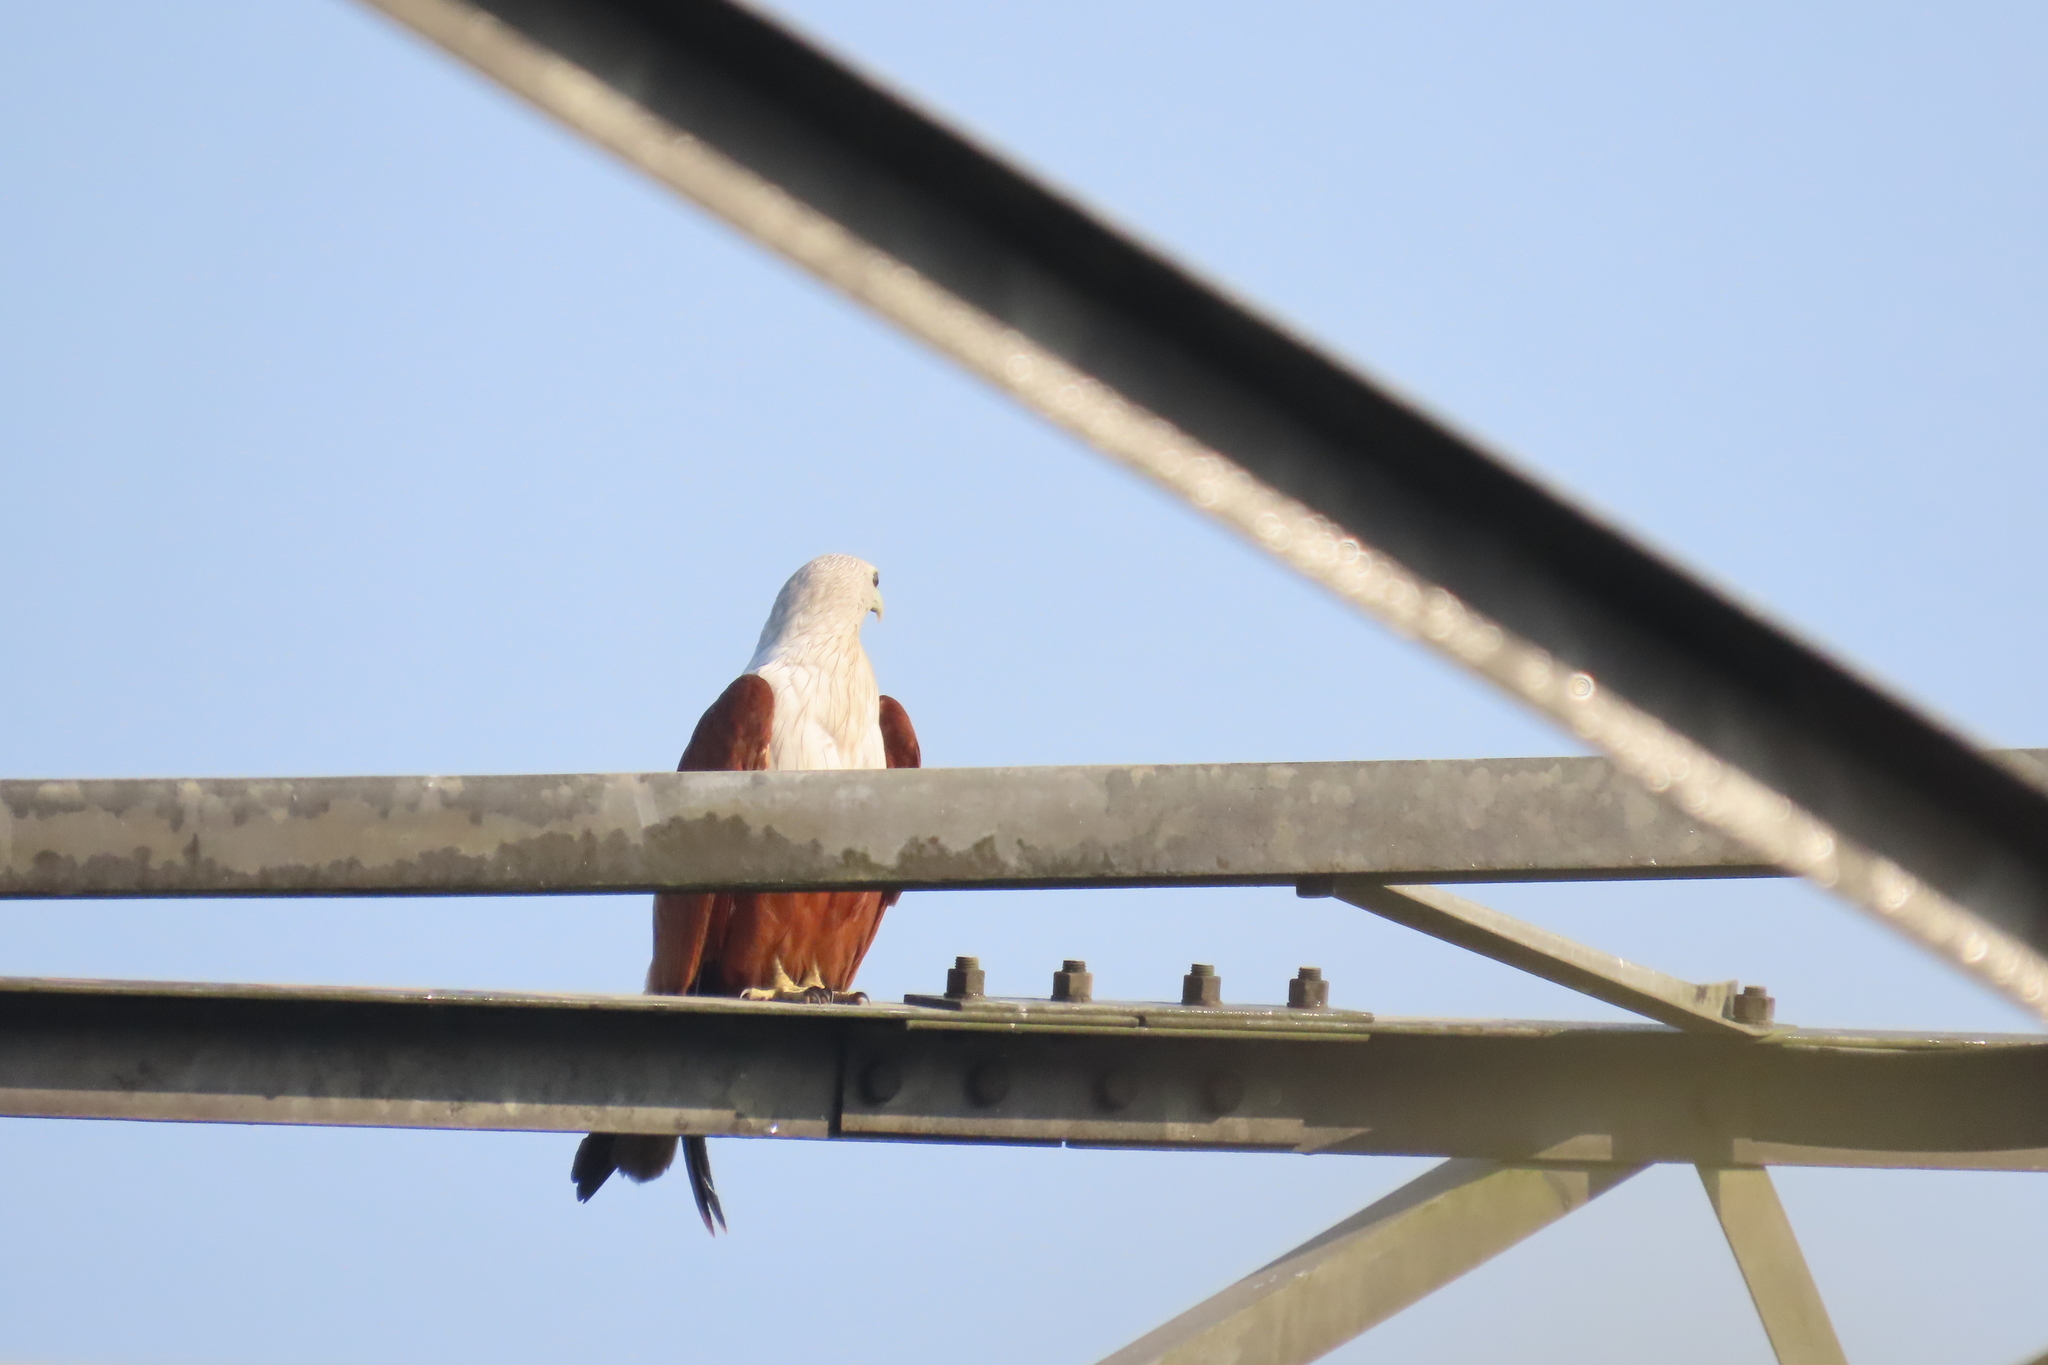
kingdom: Animalia
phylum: Chordata
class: Aves
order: Accipitriformes
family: Accipitridae
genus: Haliastur
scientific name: Haliastur indus
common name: Brahminy kite
